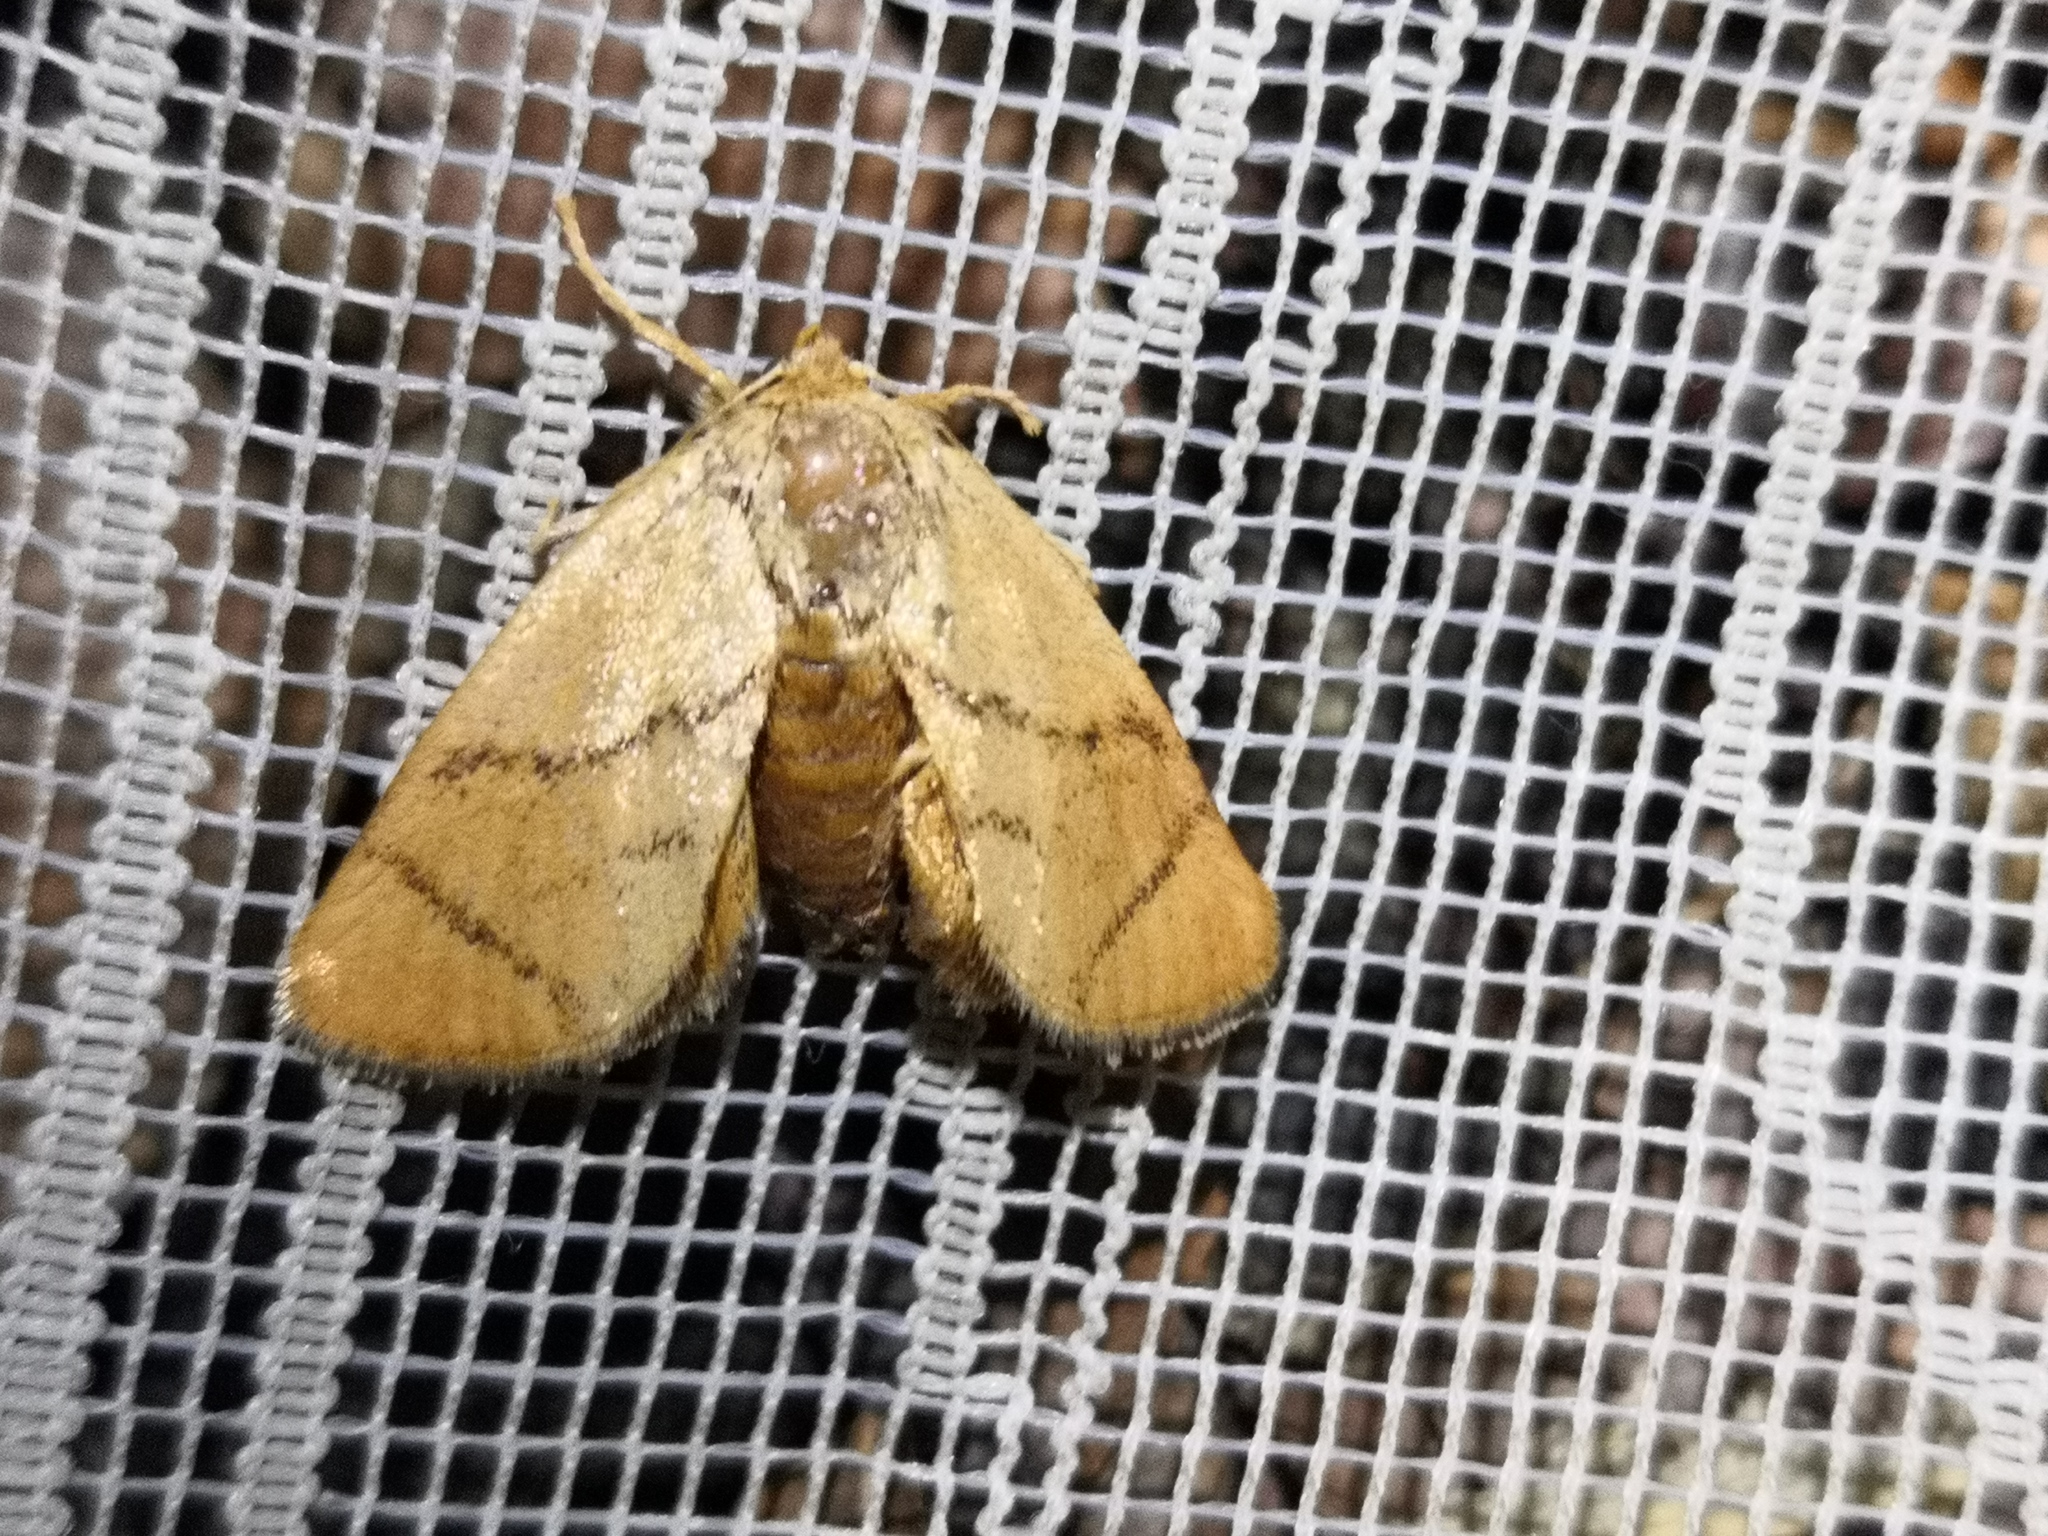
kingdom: Animalia
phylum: Arthropoda
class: Insecta
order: Lepidoptera
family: Limacodidae
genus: Apoda
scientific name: Apoda limacodes
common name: Festoon
